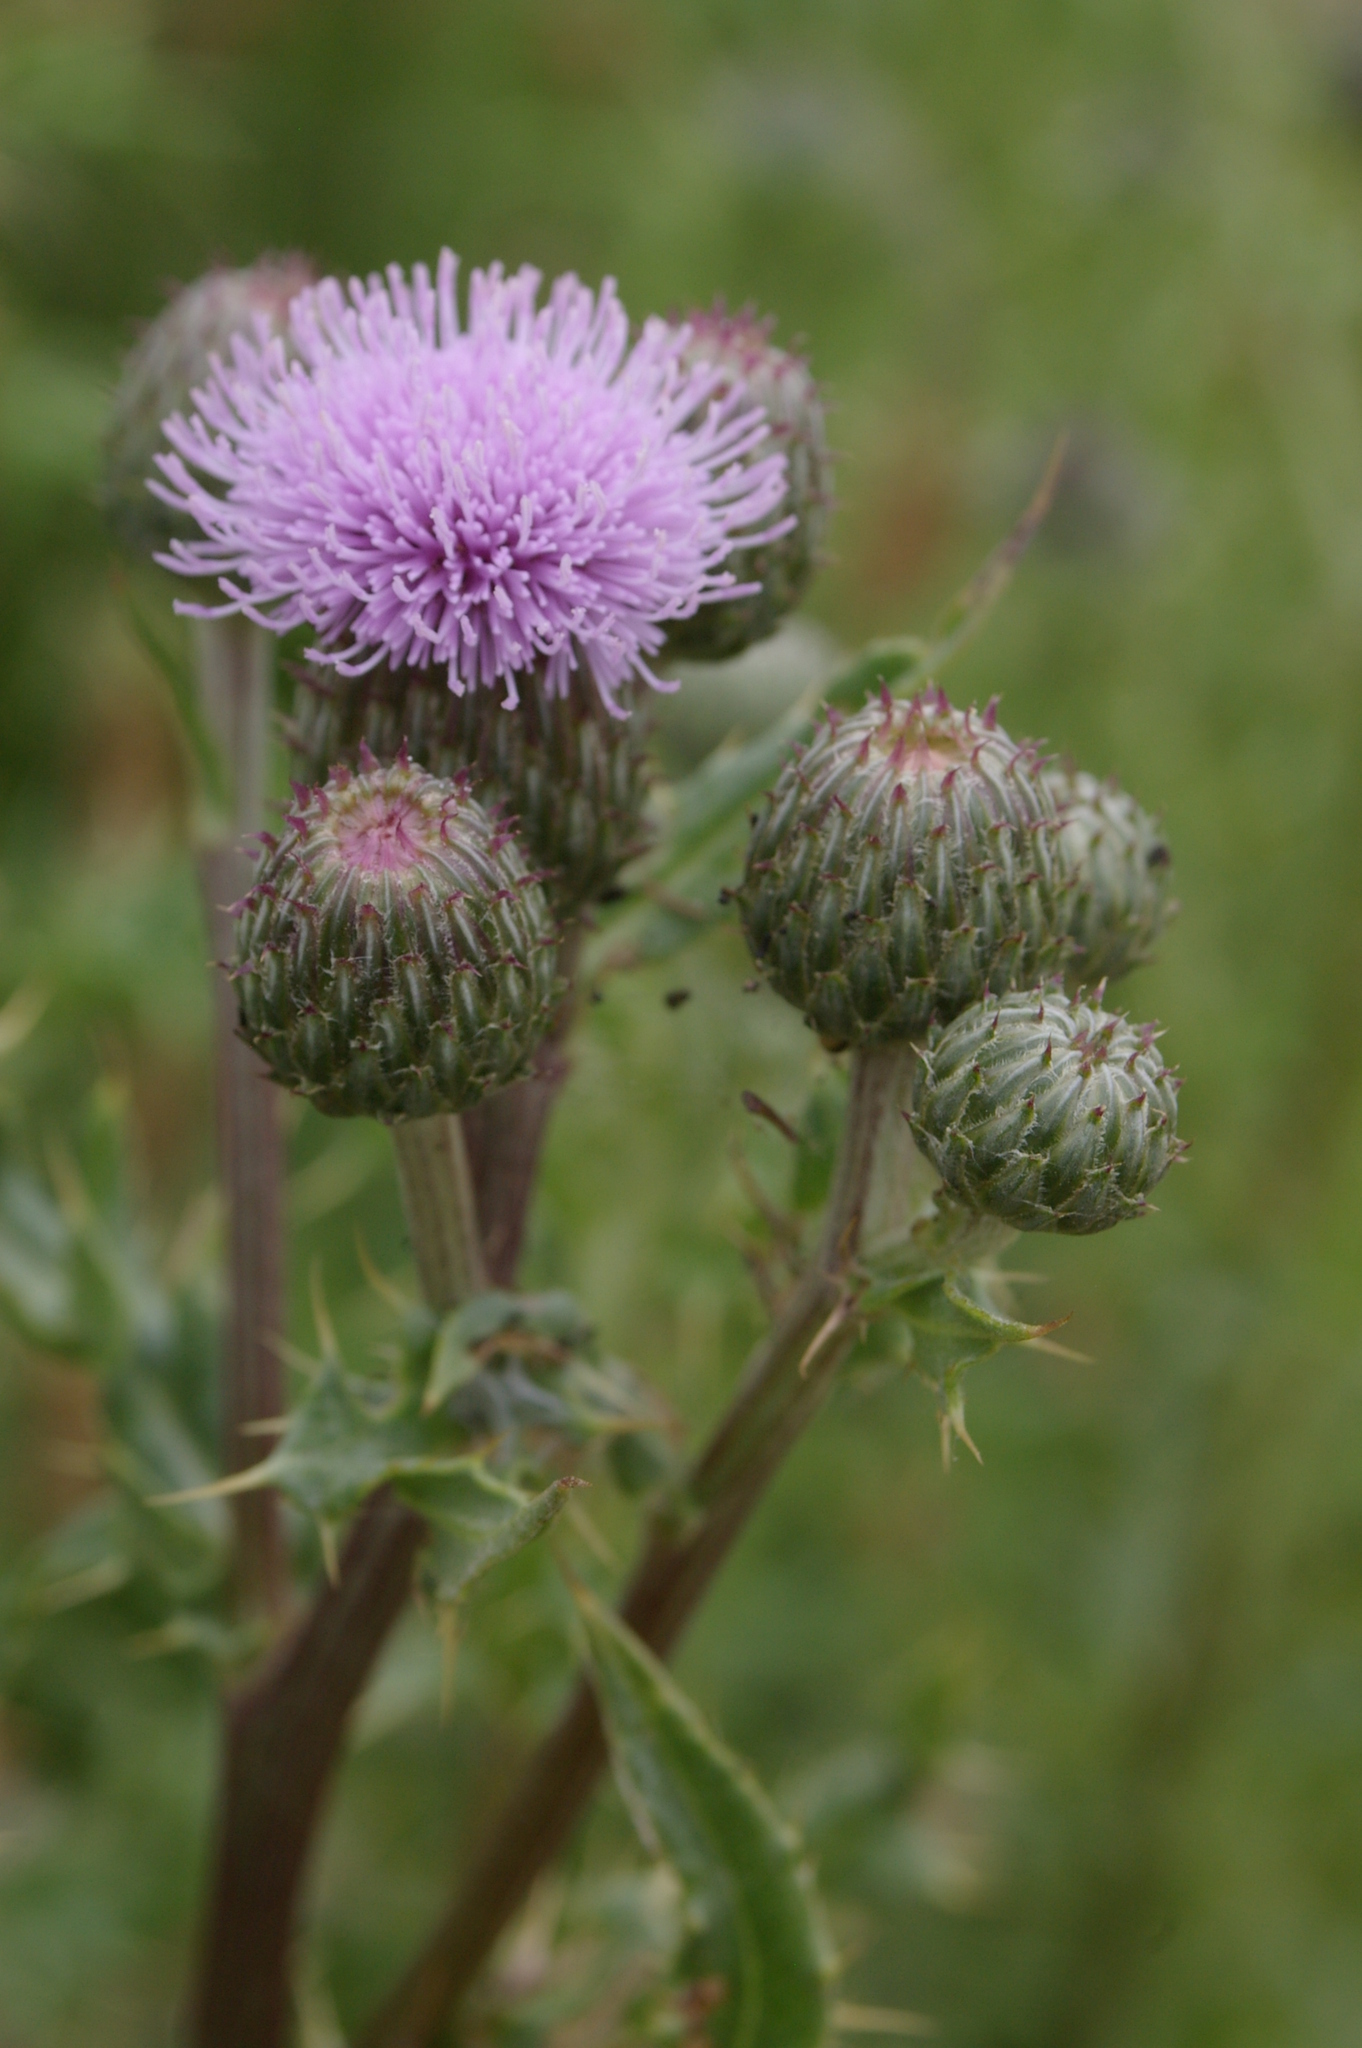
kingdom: Plantae
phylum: Tracheophyta
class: Magnoliopsida
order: Asterales
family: Asteraceae
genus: Cirsium
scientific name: Cirsium arvense
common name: Creeping thistle
